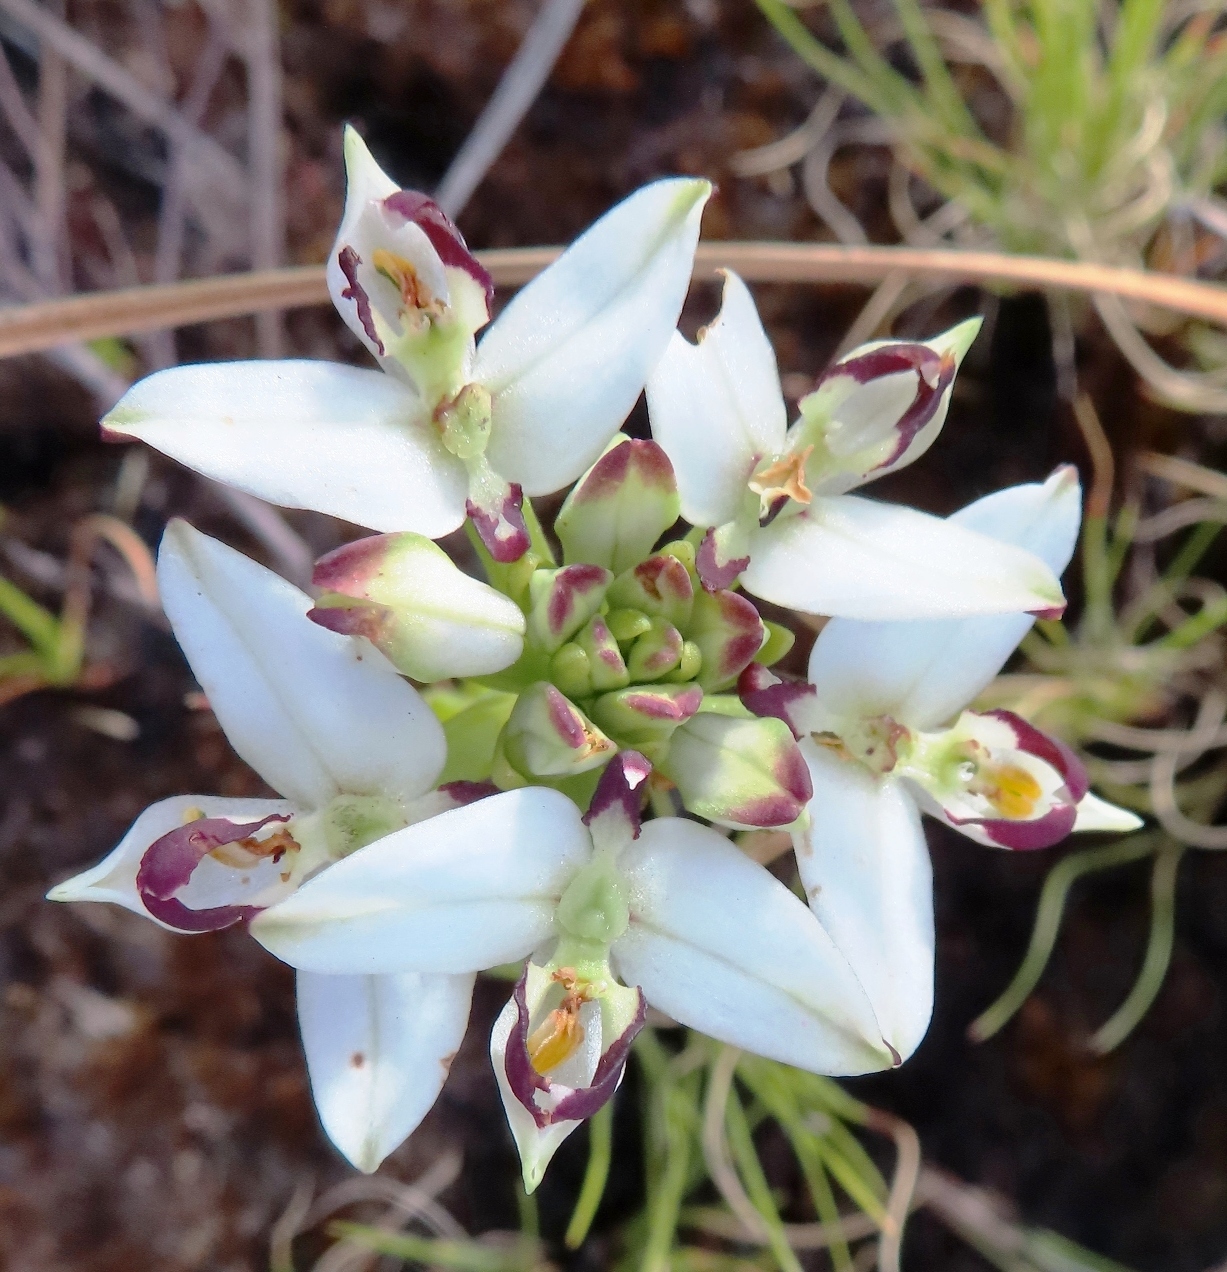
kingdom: Plantae
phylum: Tracheophyta
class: Liliopsida
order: Asparagales
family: Orchidaceae
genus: Disa
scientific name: Disa bivalvata
